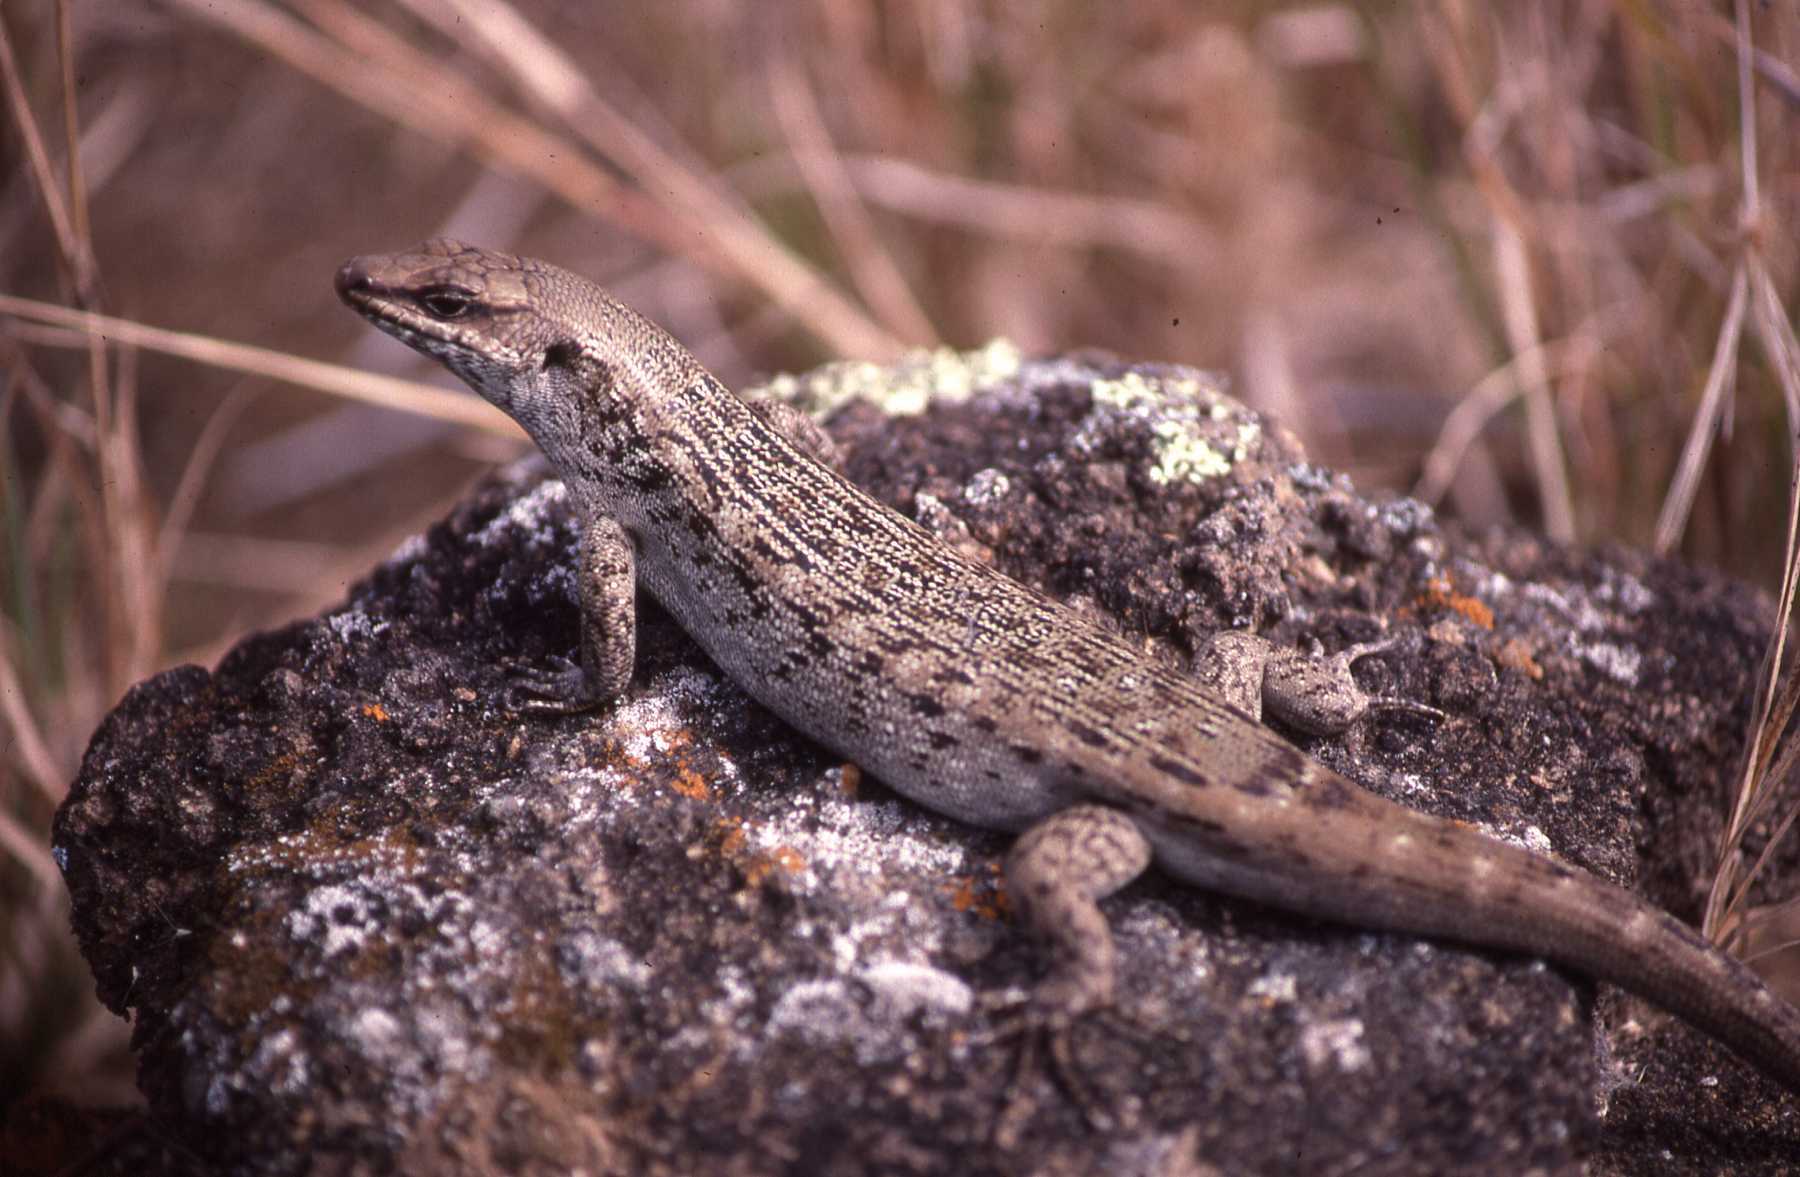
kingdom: Animalia
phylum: Chordata
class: Squamata
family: Scincidae
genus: Leiolopisma
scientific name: Leiolopisma telfairii
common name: Round island skink
